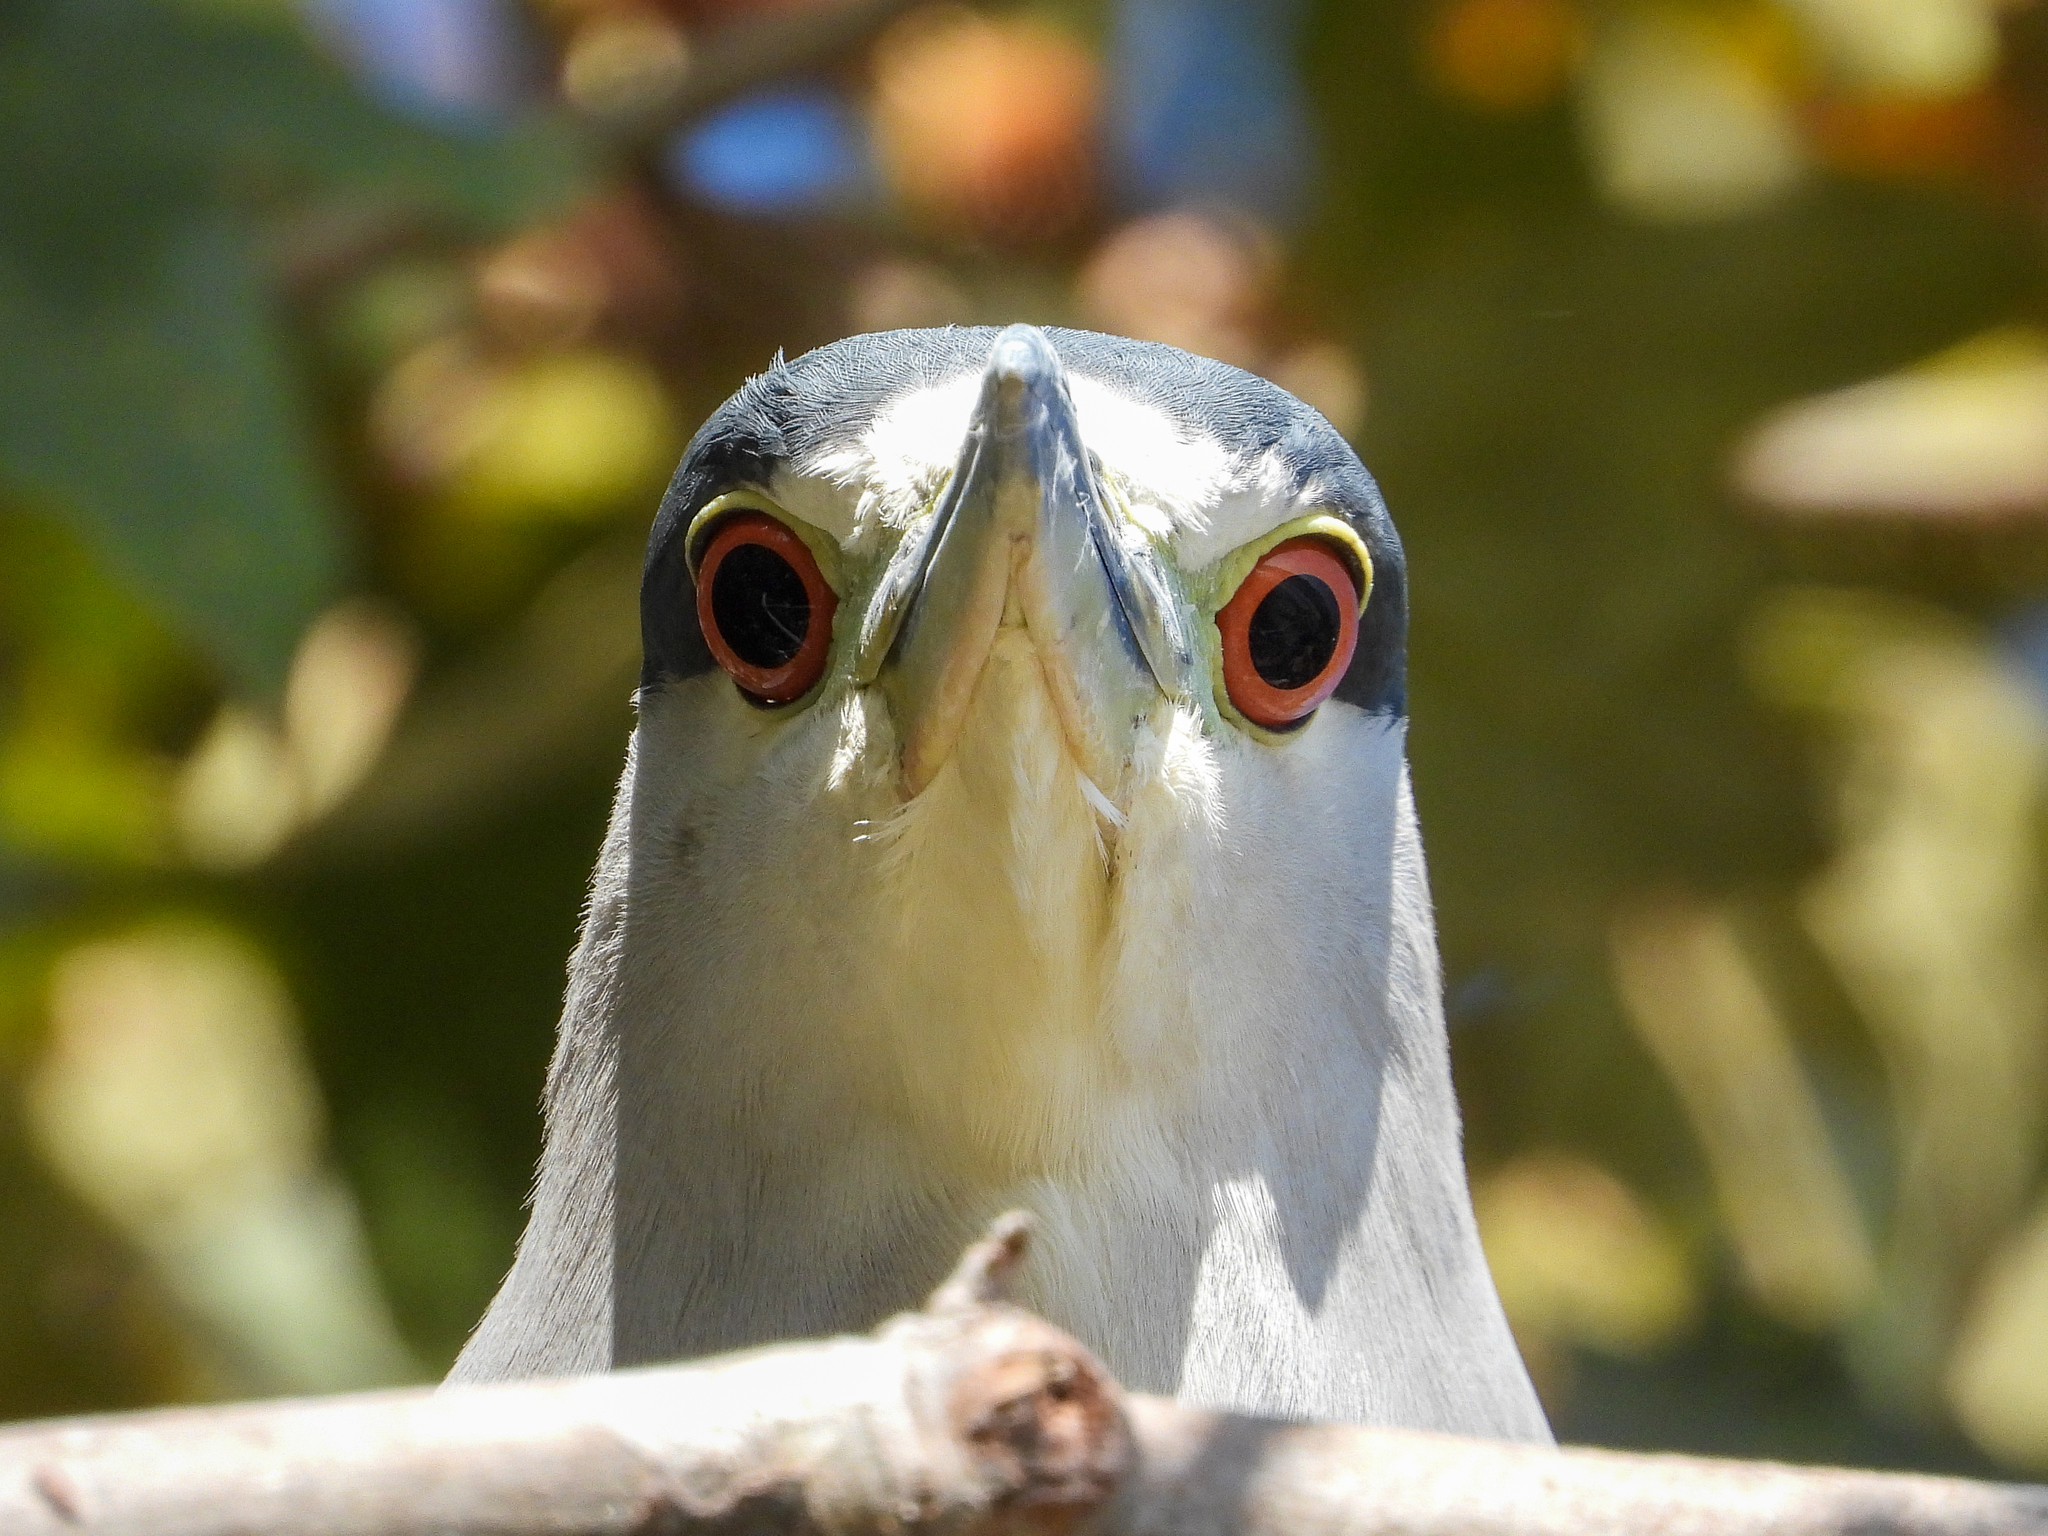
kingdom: Animalia
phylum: Chordata
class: Aves
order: Pelecaniformes
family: Ardeidae
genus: Nycticorax
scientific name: Nycticorax nycticorax
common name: Black-crowned night heron
